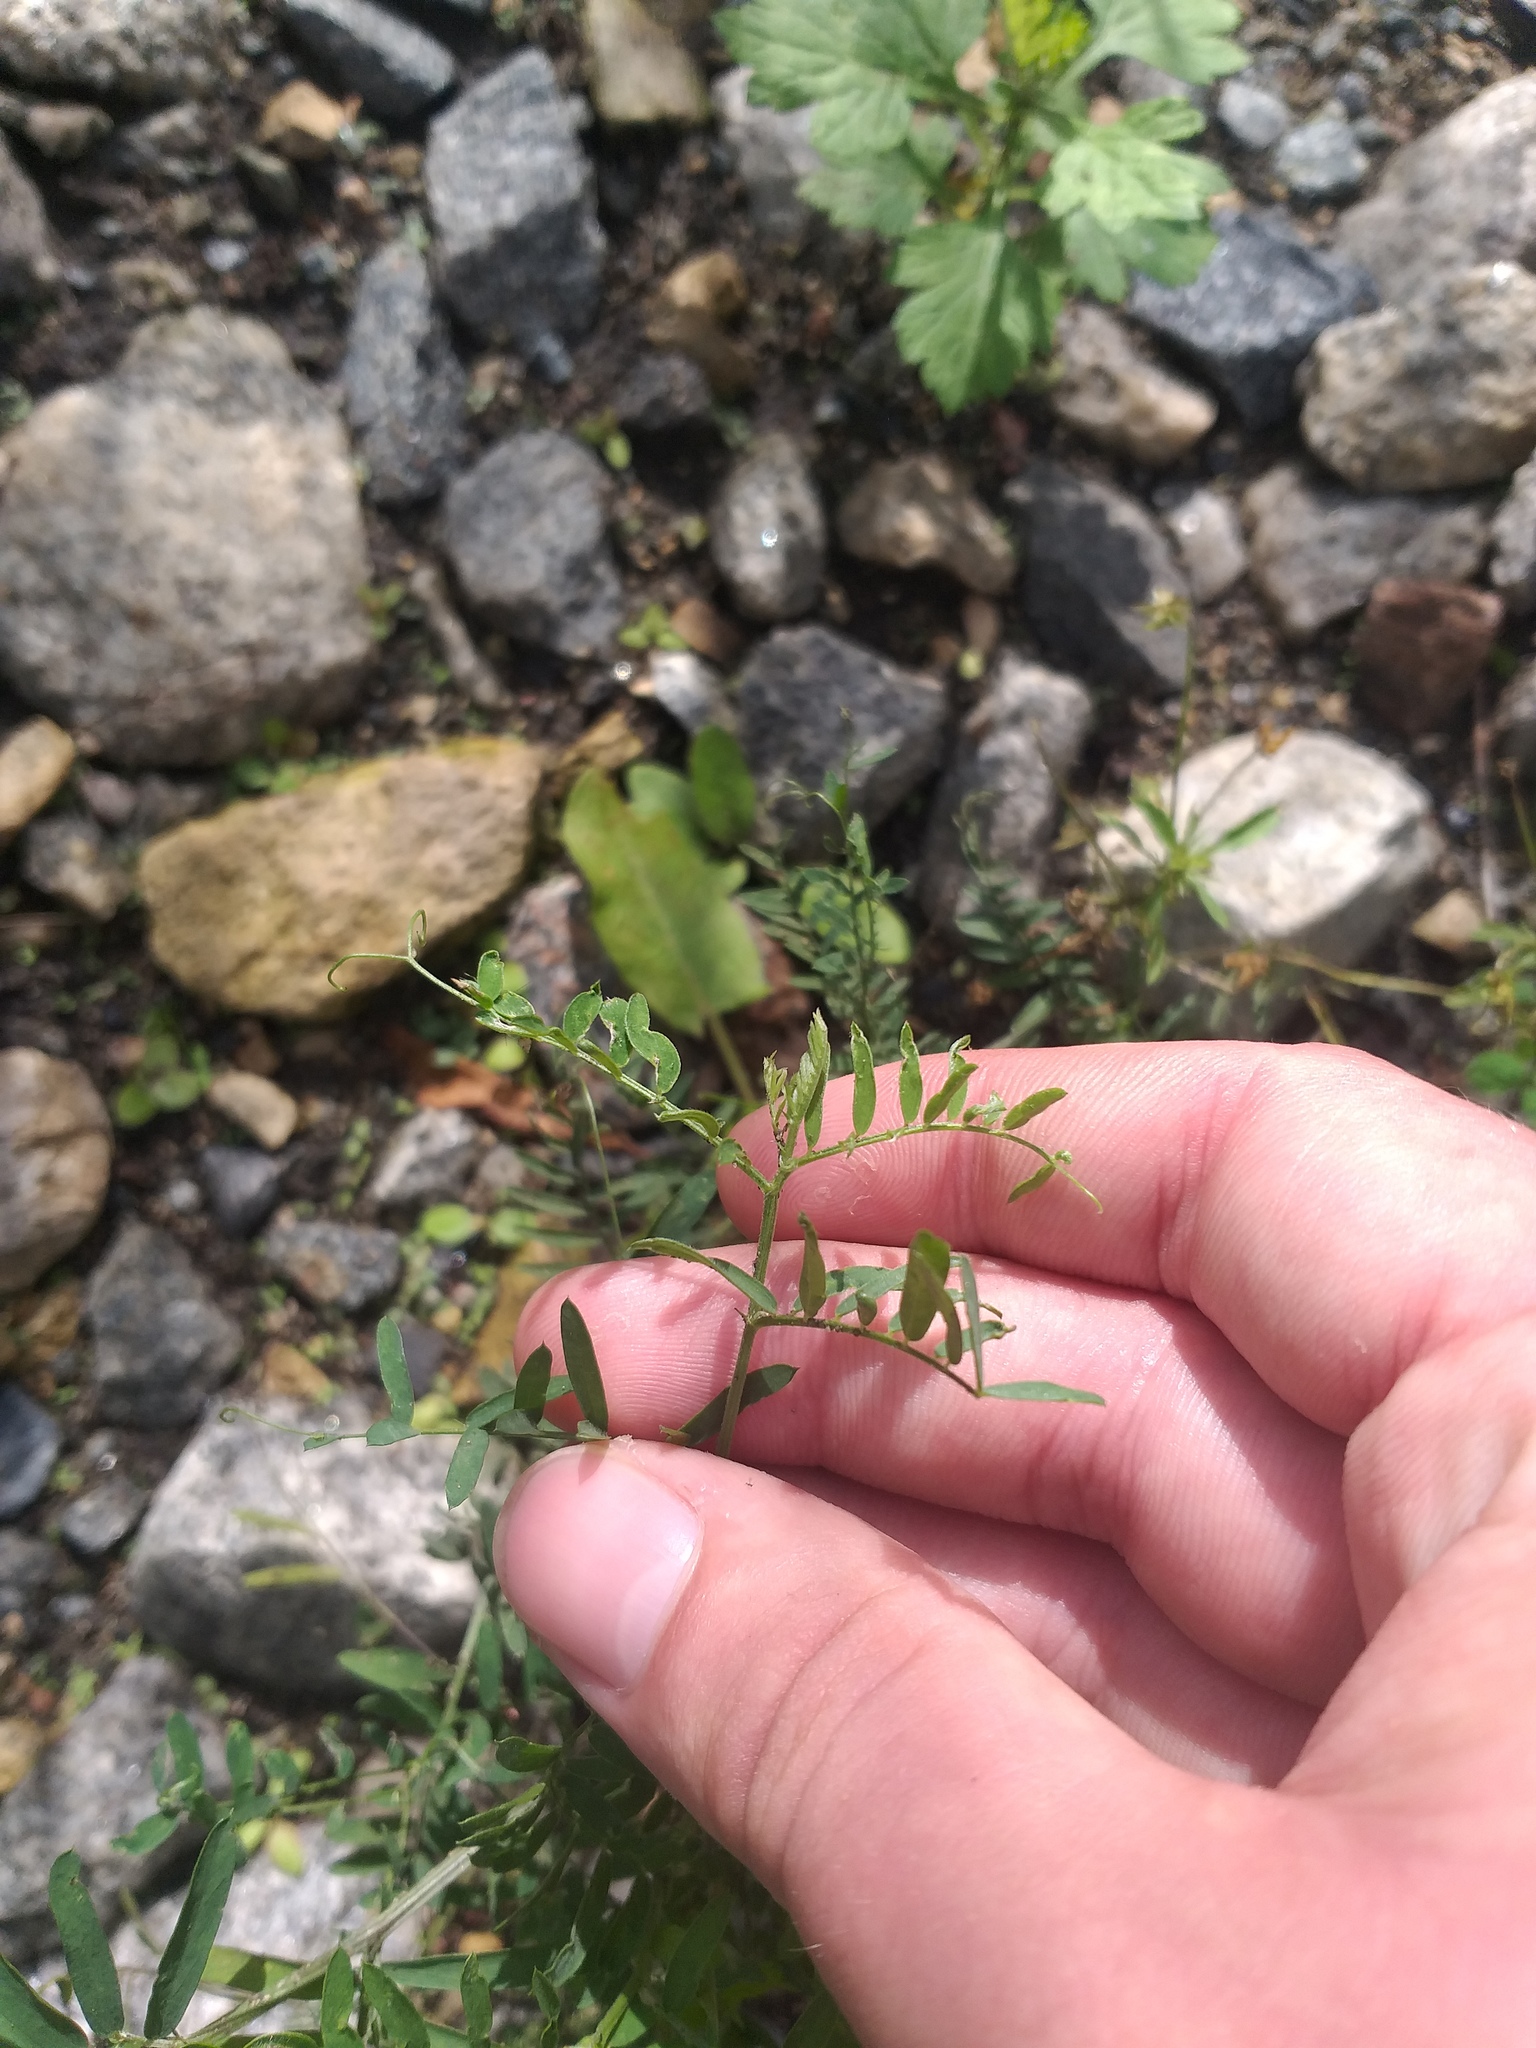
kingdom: Plantae
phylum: Tracheophyta
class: Magnoliopsida
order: Fabales
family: Fabaceae
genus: Vicia
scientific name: Vicia cracca
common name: Bird vetch
